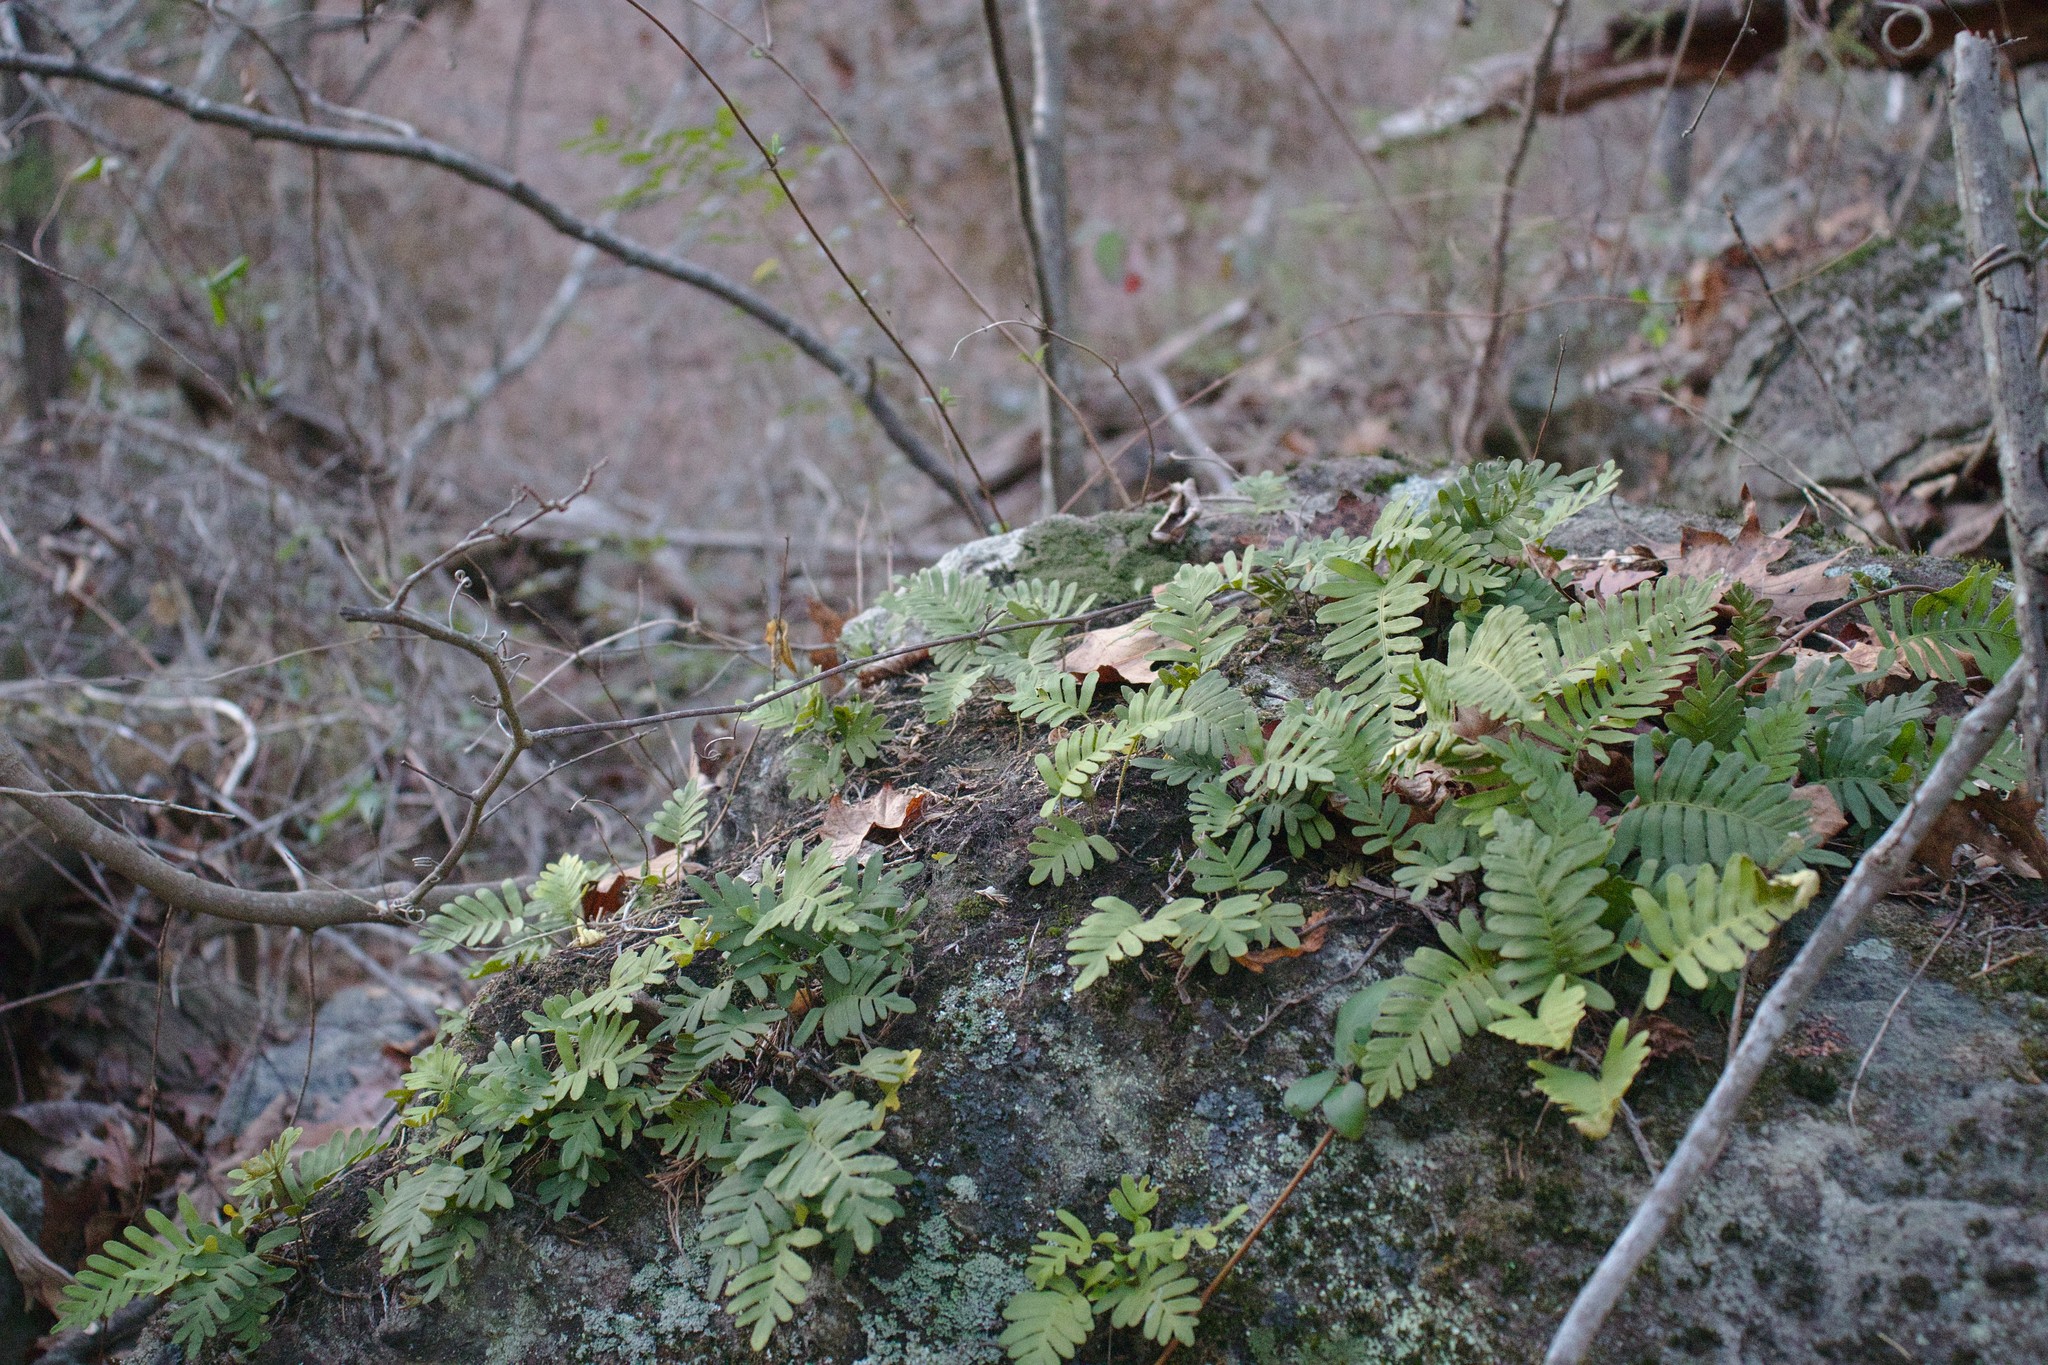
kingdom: Plantae
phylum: Tracheophyta
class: Polypodiopsida
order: Polypodiales
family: Polypodiaceae
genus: Pleopeltis
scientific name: Pleopeltis michauxiana
